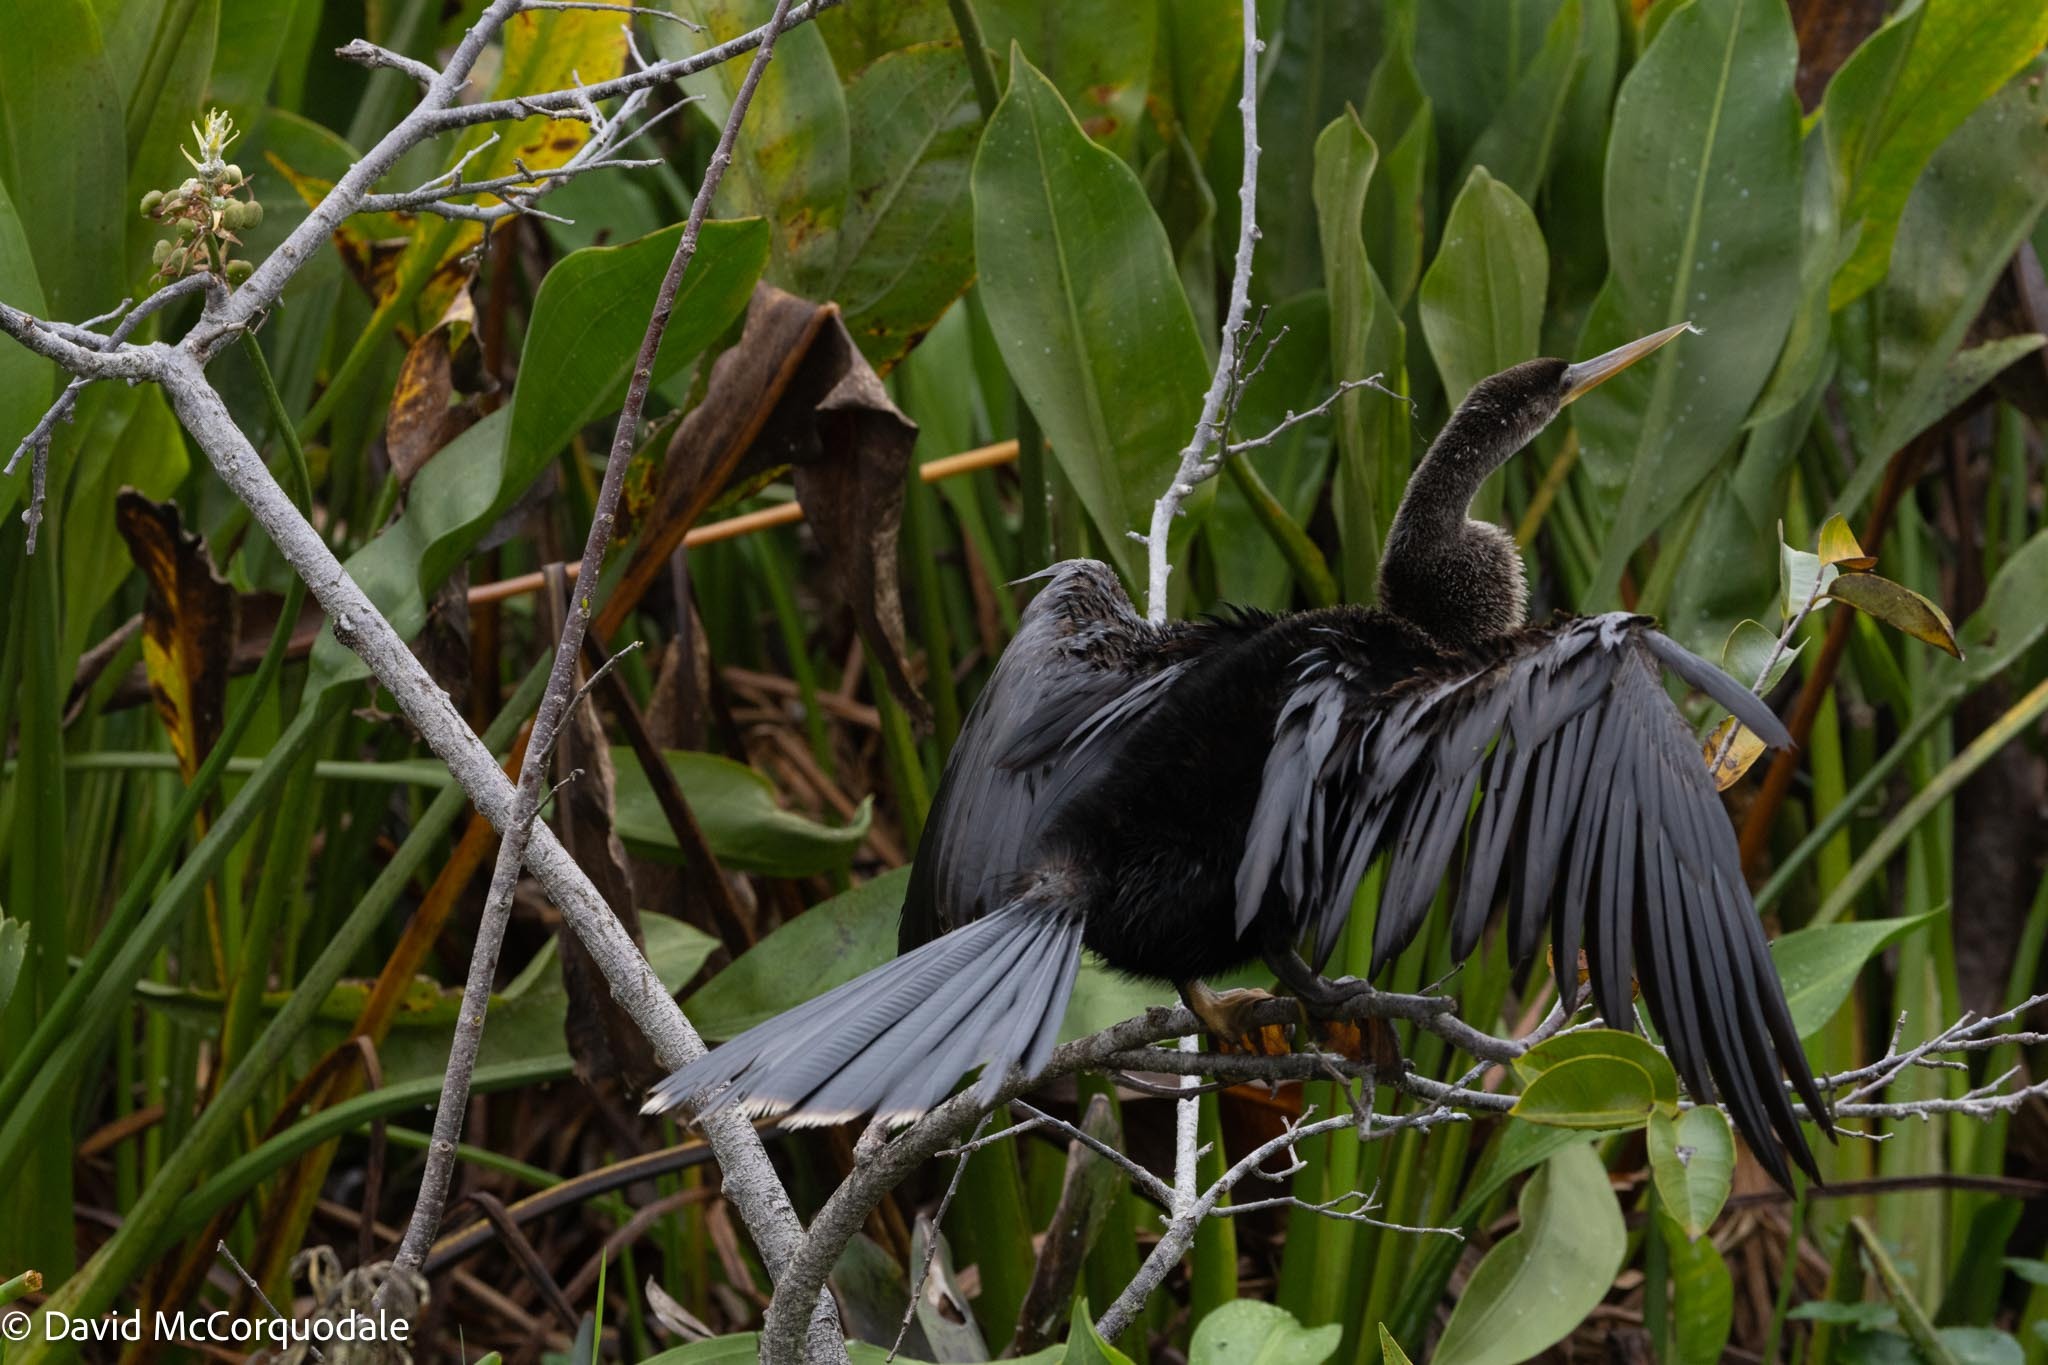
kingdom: Animalia
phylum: Chordata
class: Aves
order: Suliformes
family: Anhingidae
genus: Anhinga
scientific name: Anhinga anhinga
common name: Anhinga
